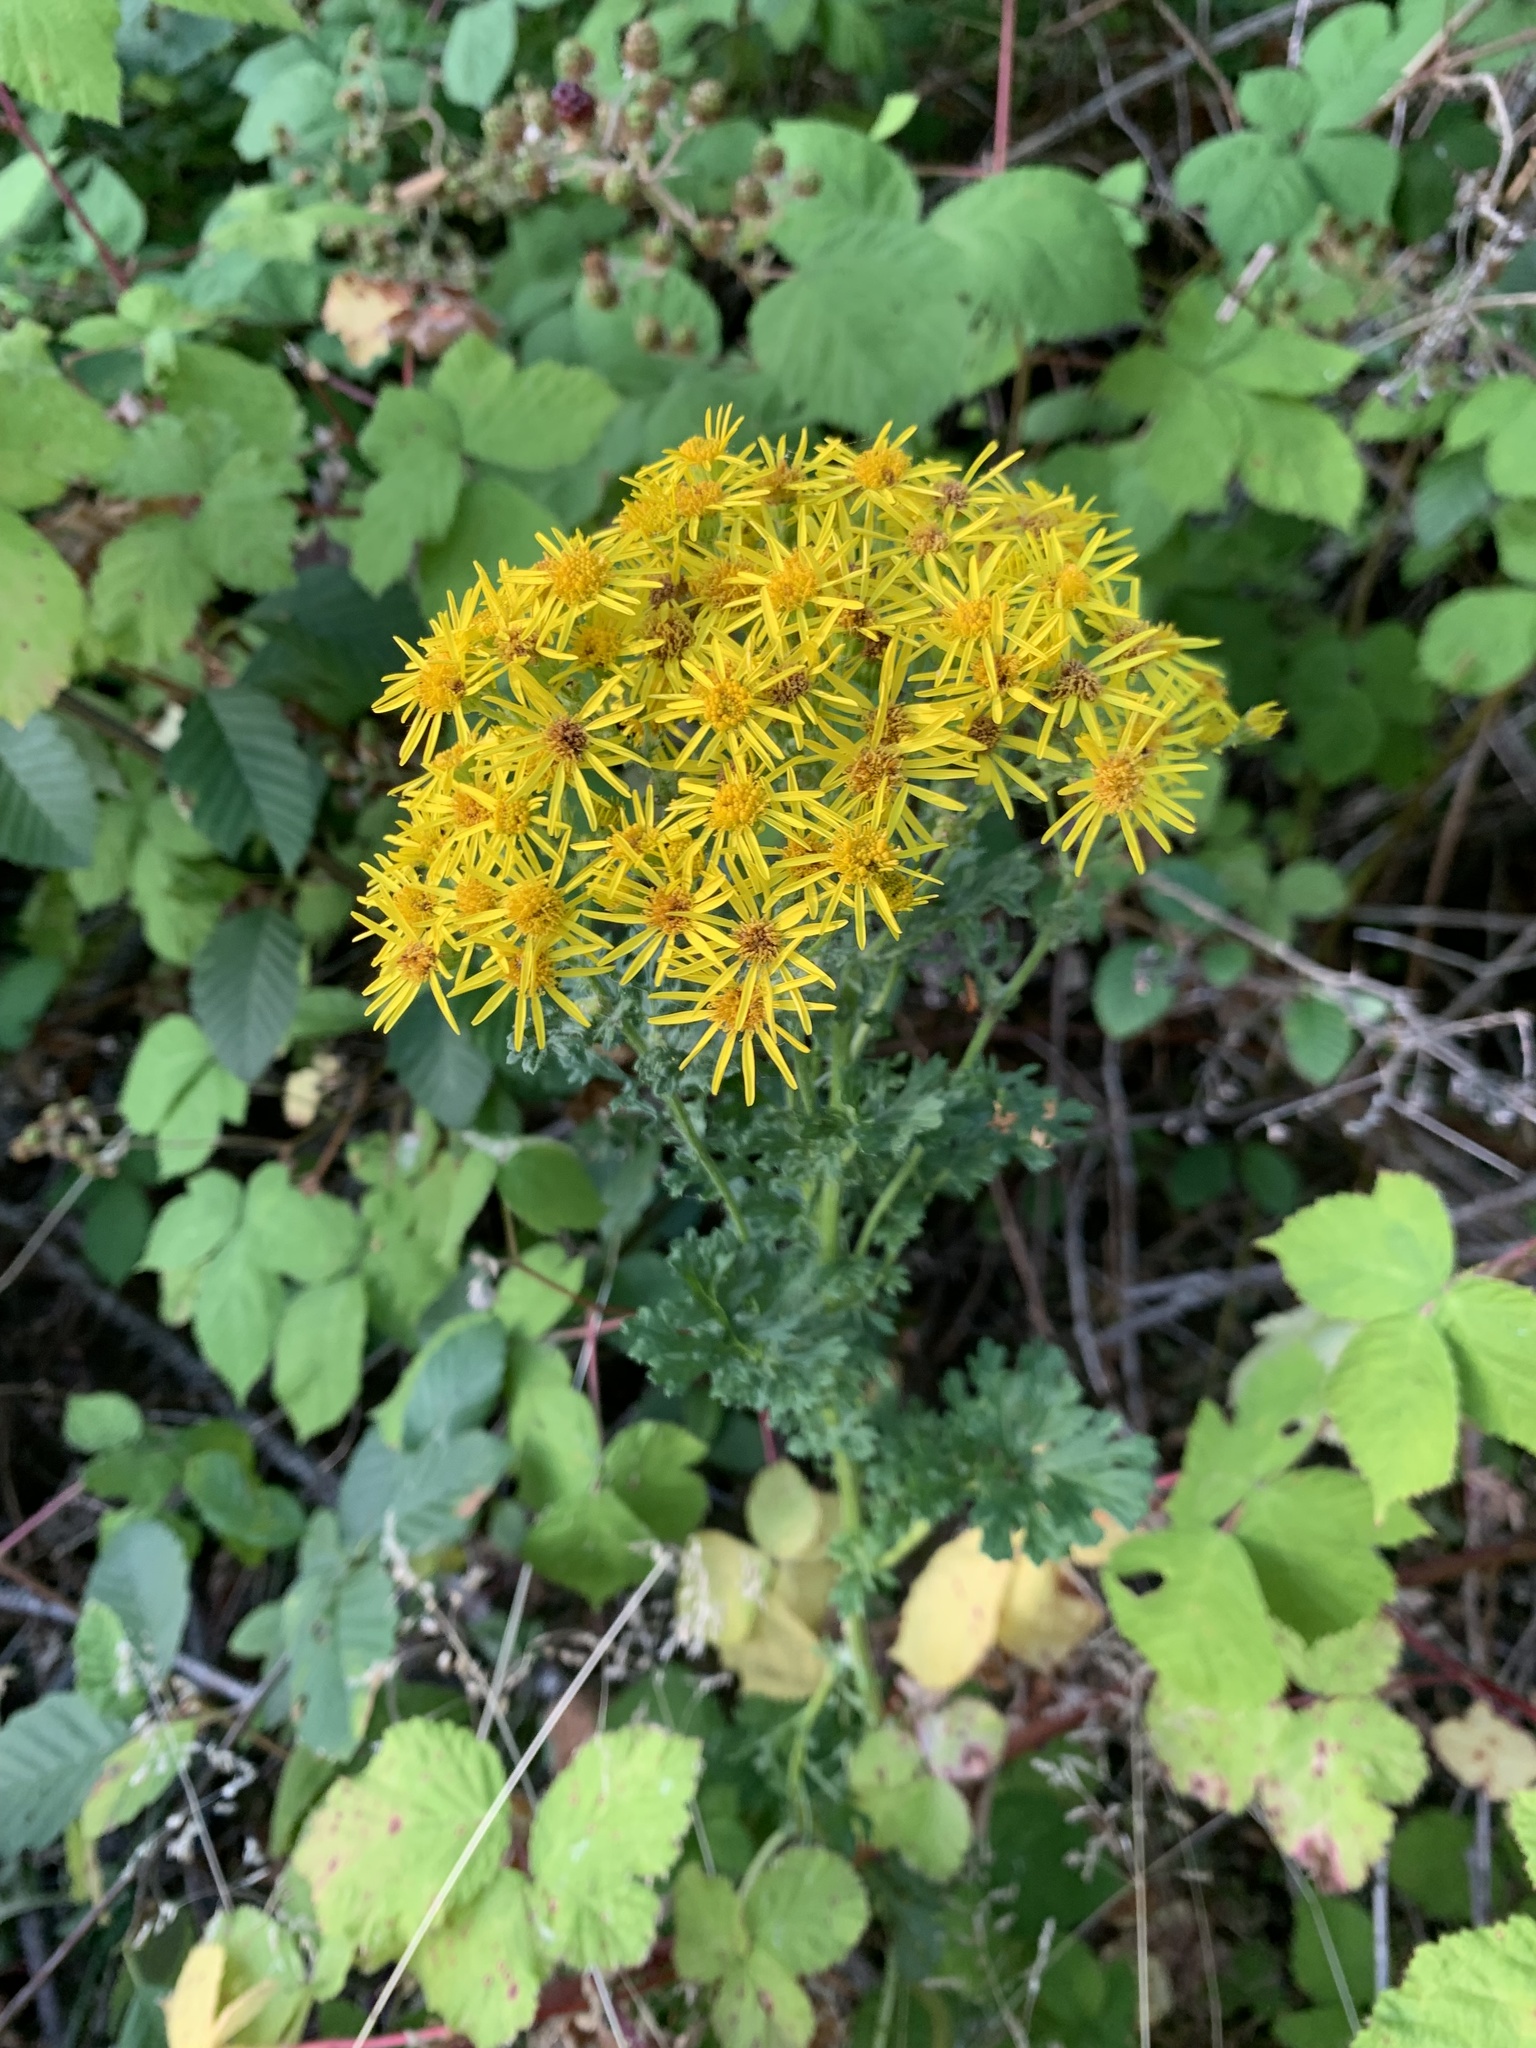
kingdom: Plantae
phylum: Tracheophyta
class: Magnoliopsida
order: Asterales
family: Asteraceae
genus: Jacobaea
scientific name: Jacobaea vulgaris
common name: Stinking willie
